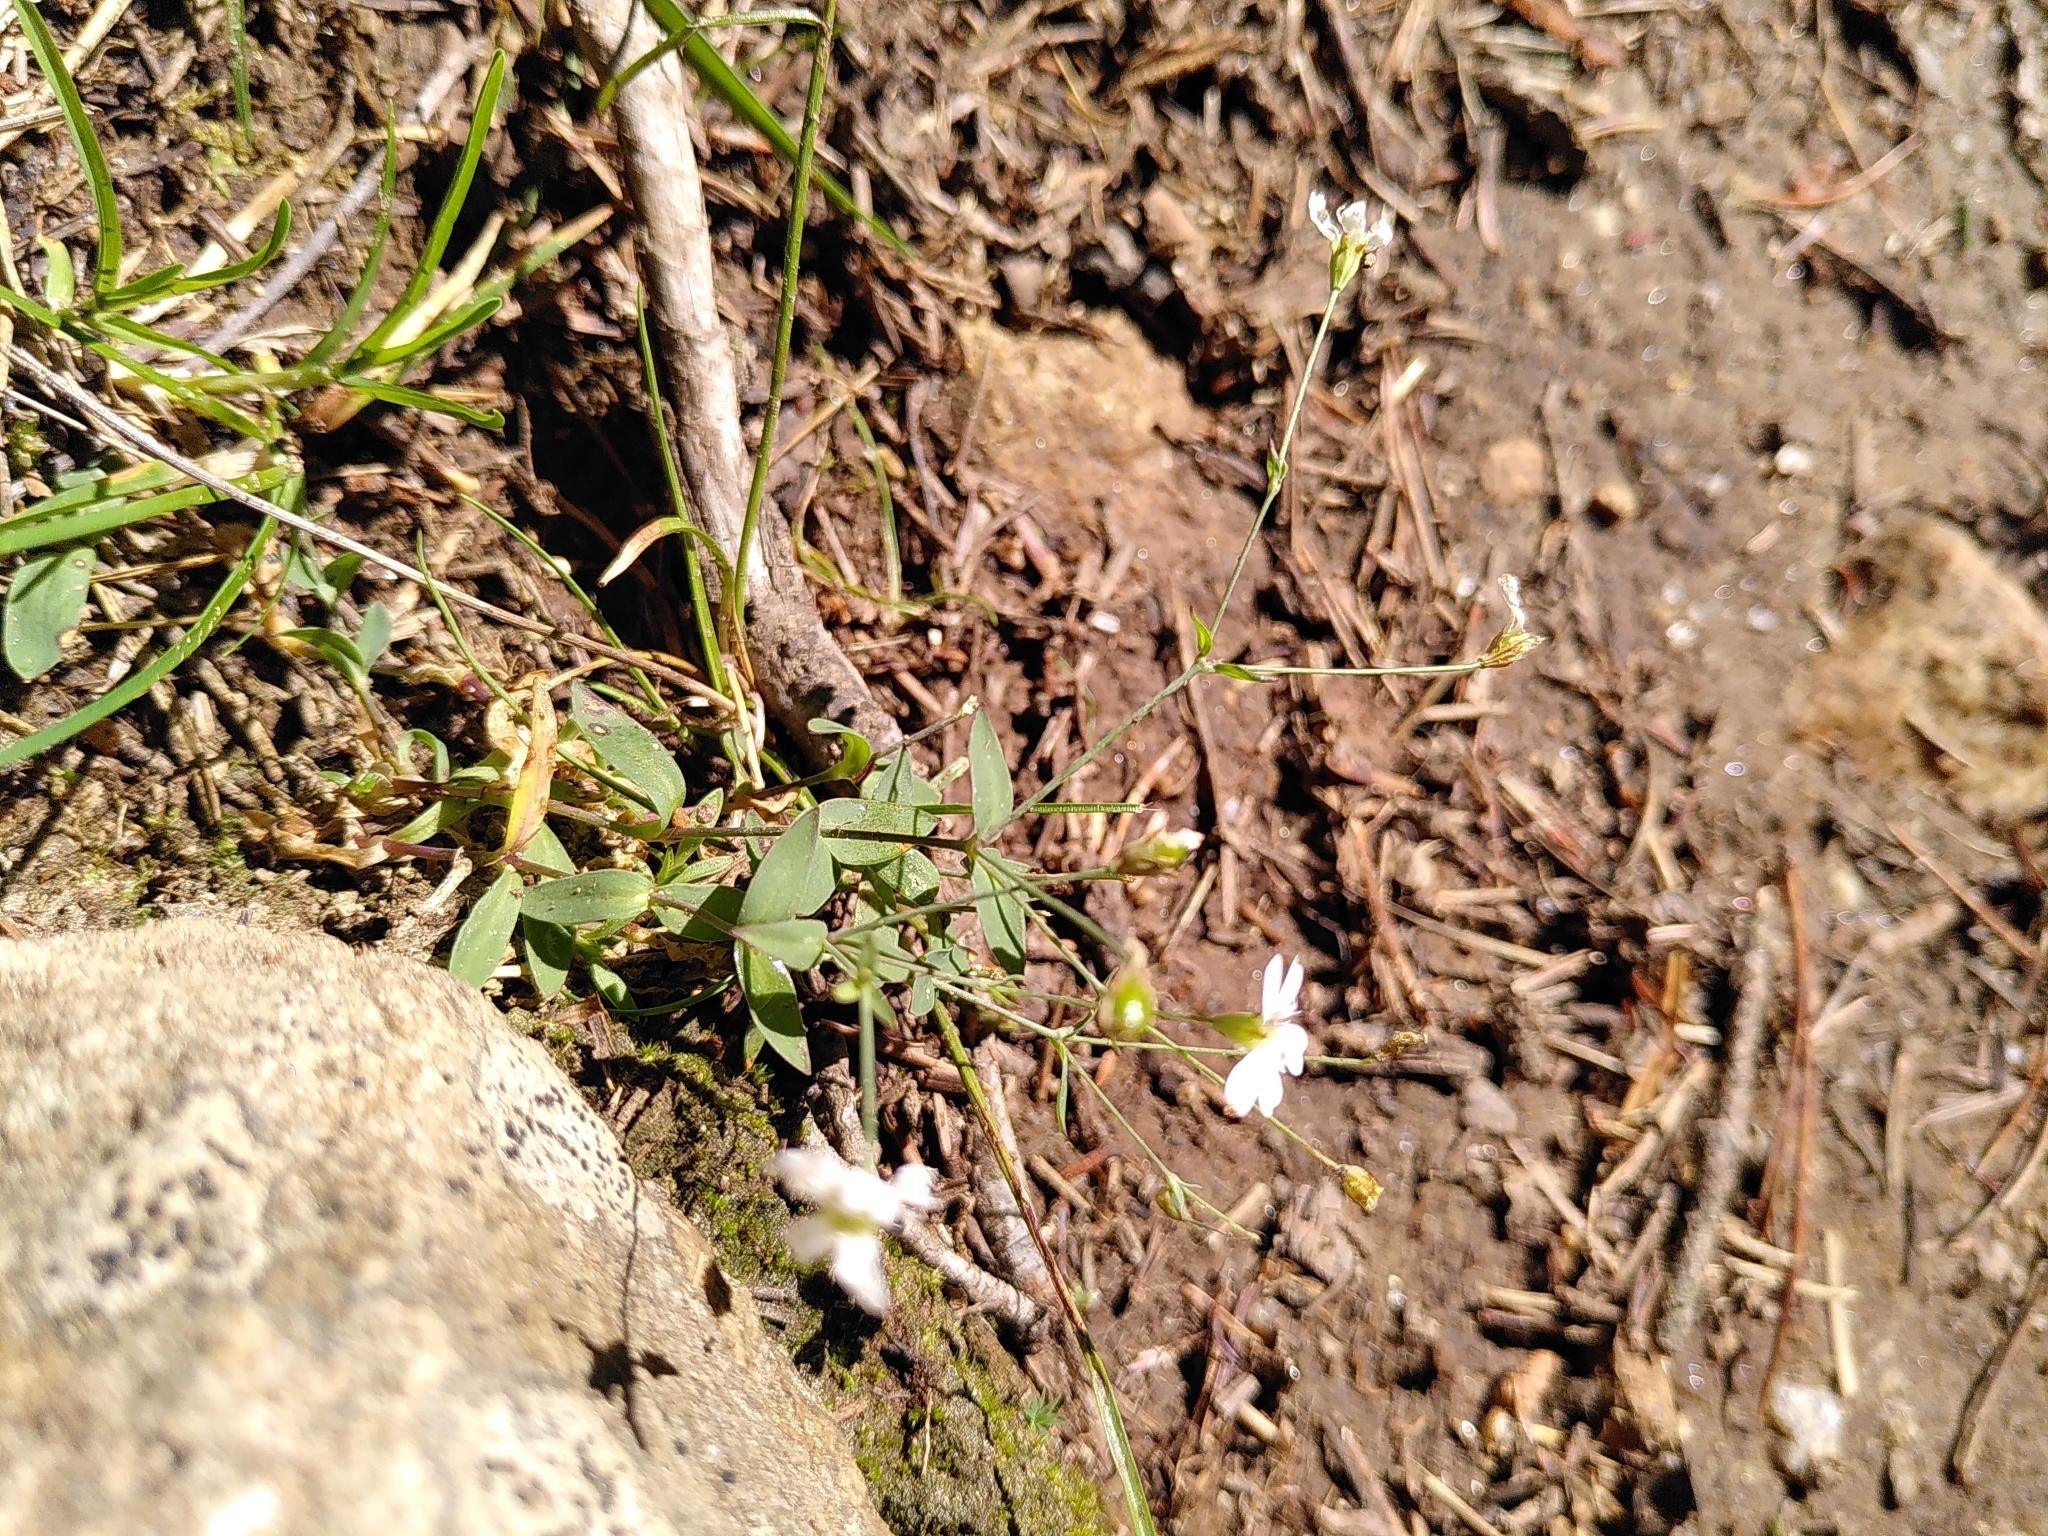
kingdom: Plantae
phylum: Tracheophyta
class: Magnoliopsida
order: Caryophyllales
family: Caryophyllaceae
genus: Atocion
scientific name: Atocion rupestre
